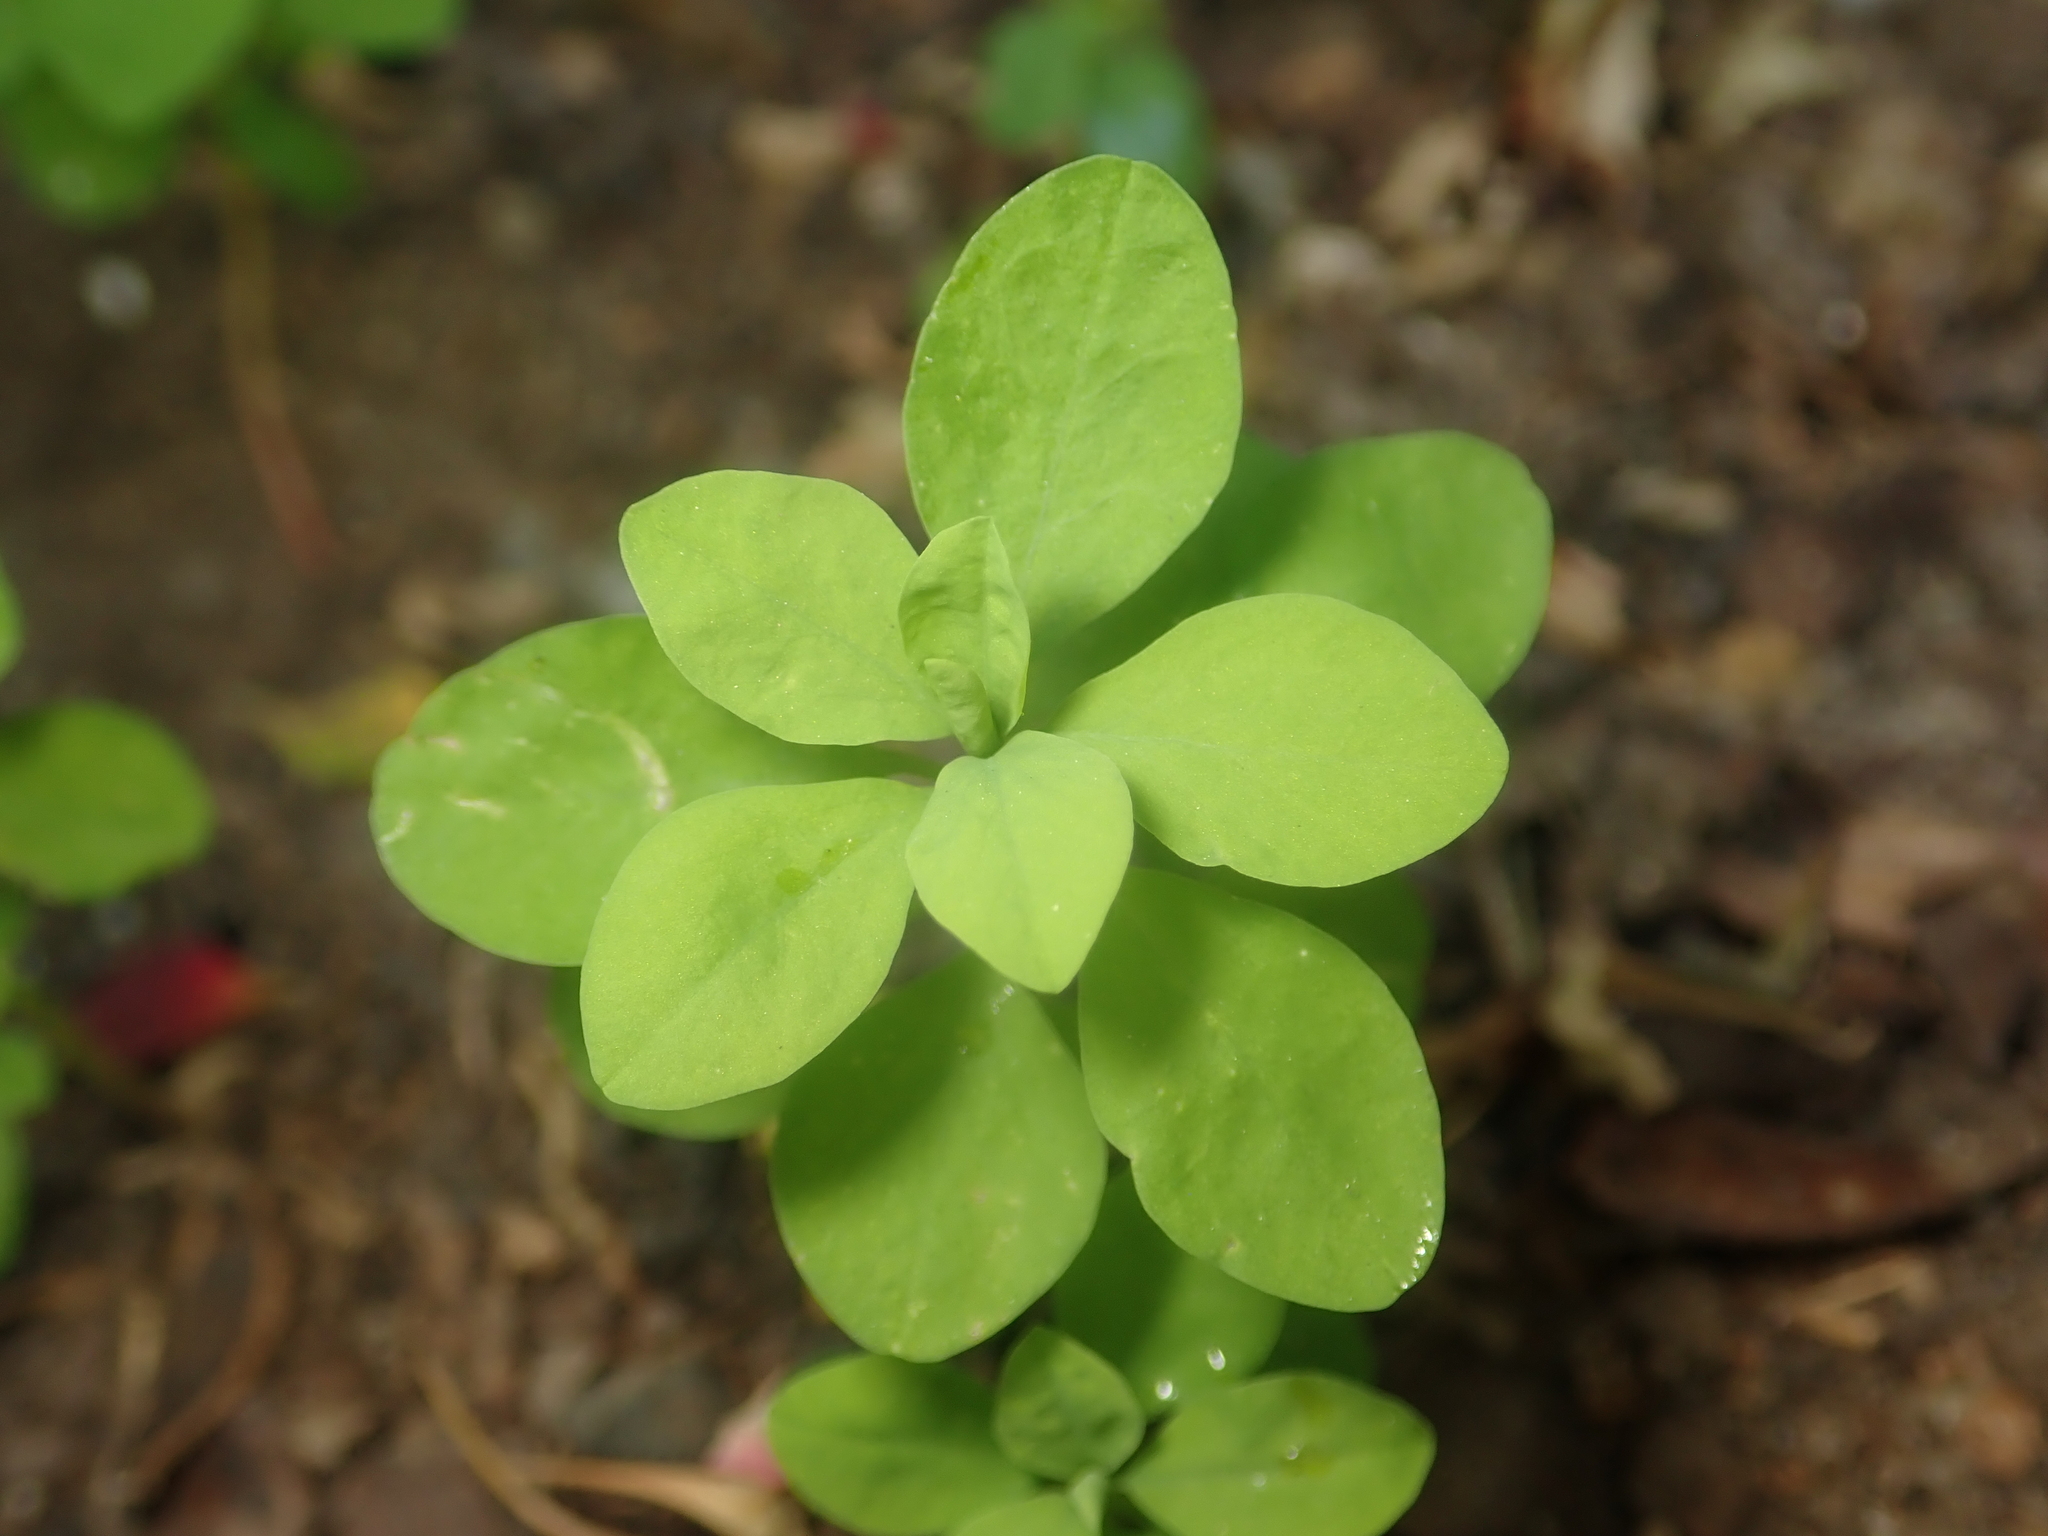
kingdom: Plantae
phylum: Tracheophyta
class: Magnoliopsida
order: Malpighiales
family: Euphorbiaceae
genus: Euphorbia
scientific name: Euphorbia peplus
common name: Petty spurge
